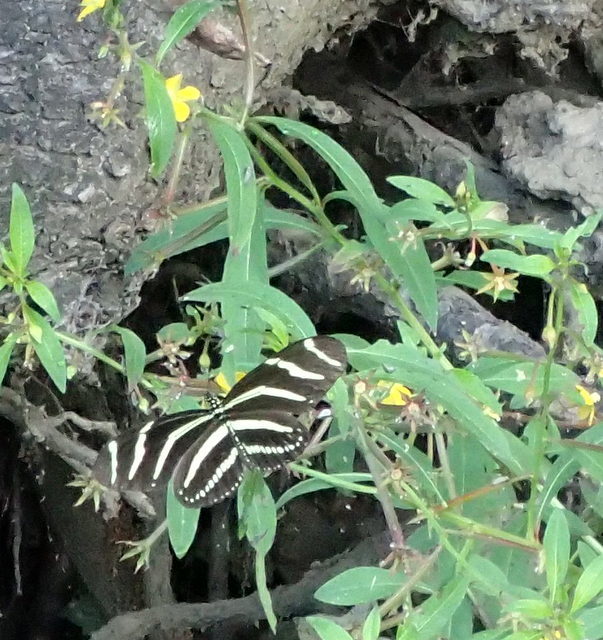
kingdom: Animalia
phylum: Arthropoda
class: Insecta
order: Lepidoptera
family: Nymphalidae
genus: Heliconius
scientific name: Heliconius charithonia
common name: Zebra long wing
